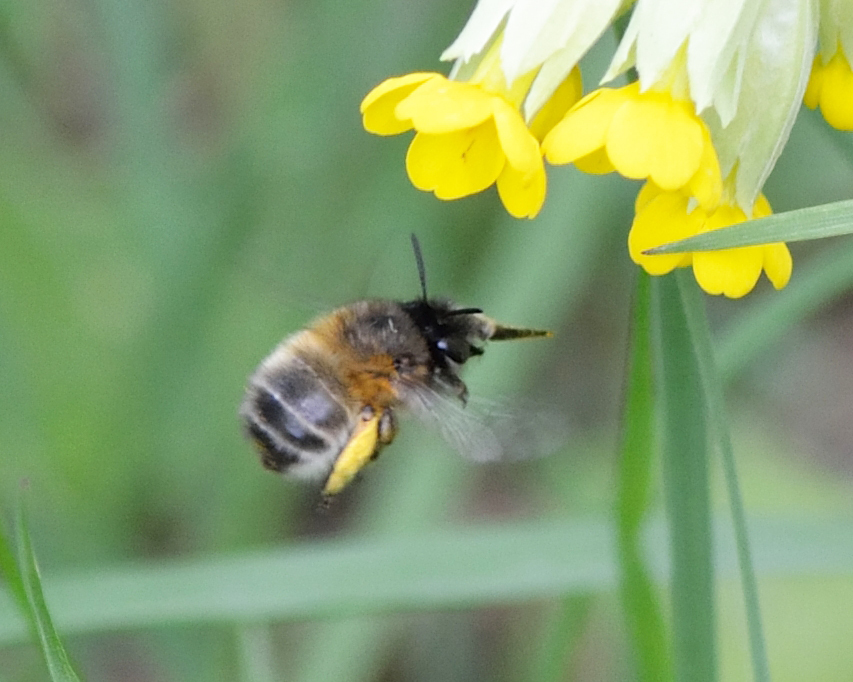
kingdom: Animalia
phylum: Arthropoda
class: Insecta
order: Hymenoptera
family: Apidae
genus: Anthophora
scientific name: Anthophora plumipes
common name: Hairy-footed flower bee
